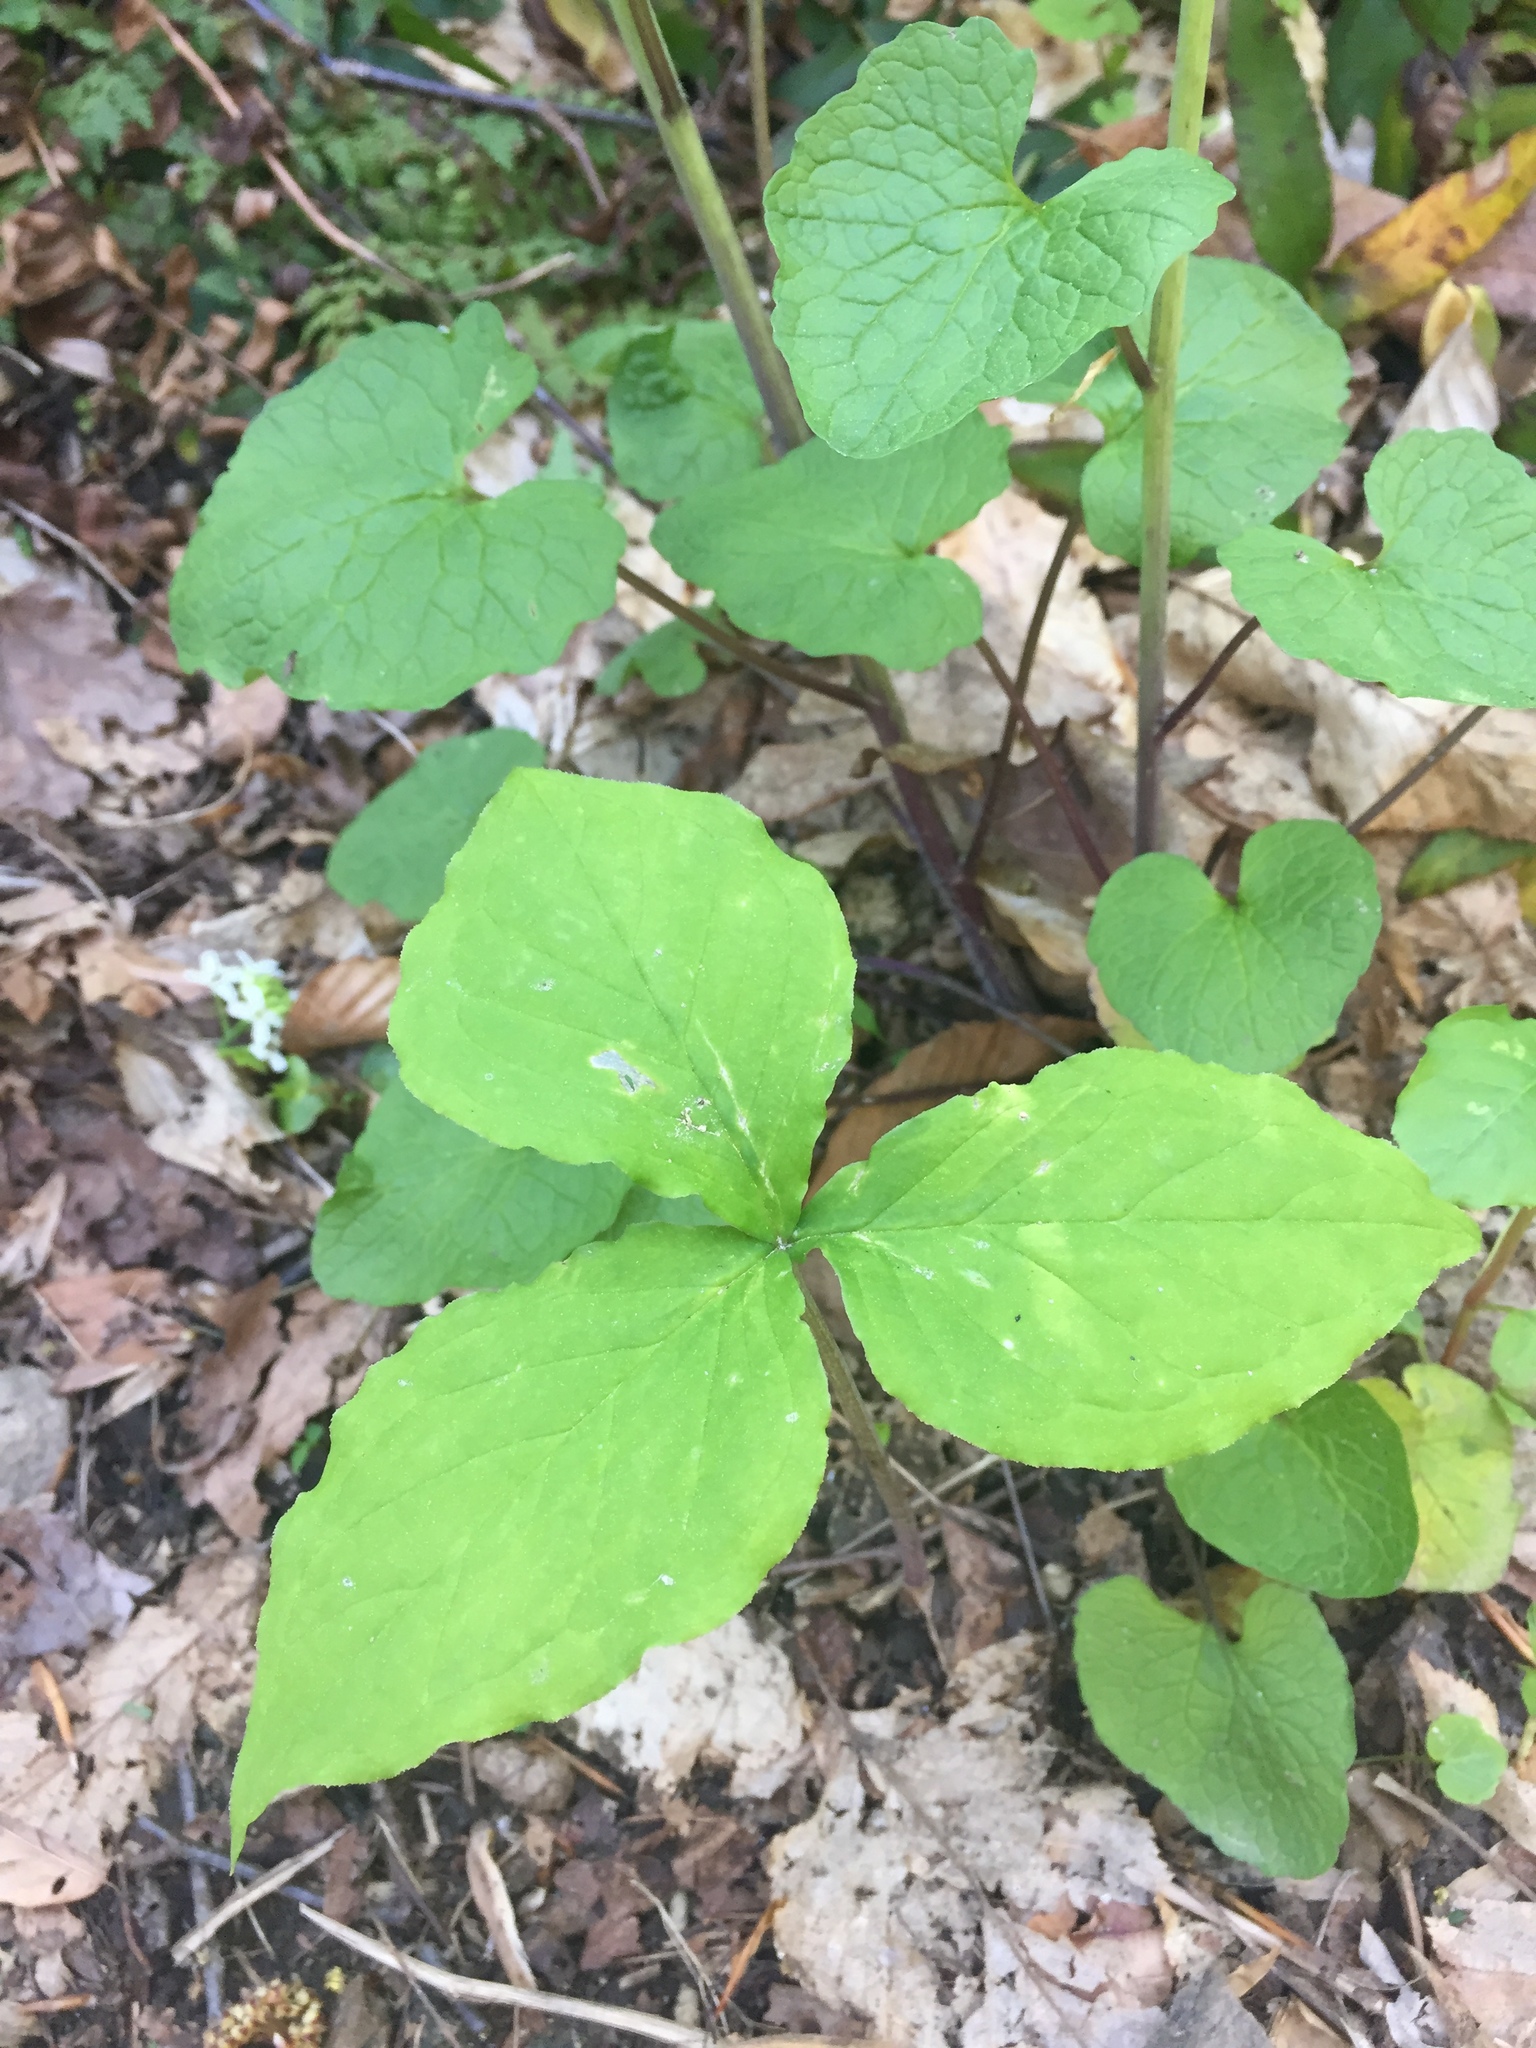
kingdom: Plantae
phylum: Tracheophyta
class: Liliopsida
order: Alismatales
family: Araceae
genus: Arisaema
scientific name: Arisaema triphyllum
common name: Jack-in-the-pulpit
